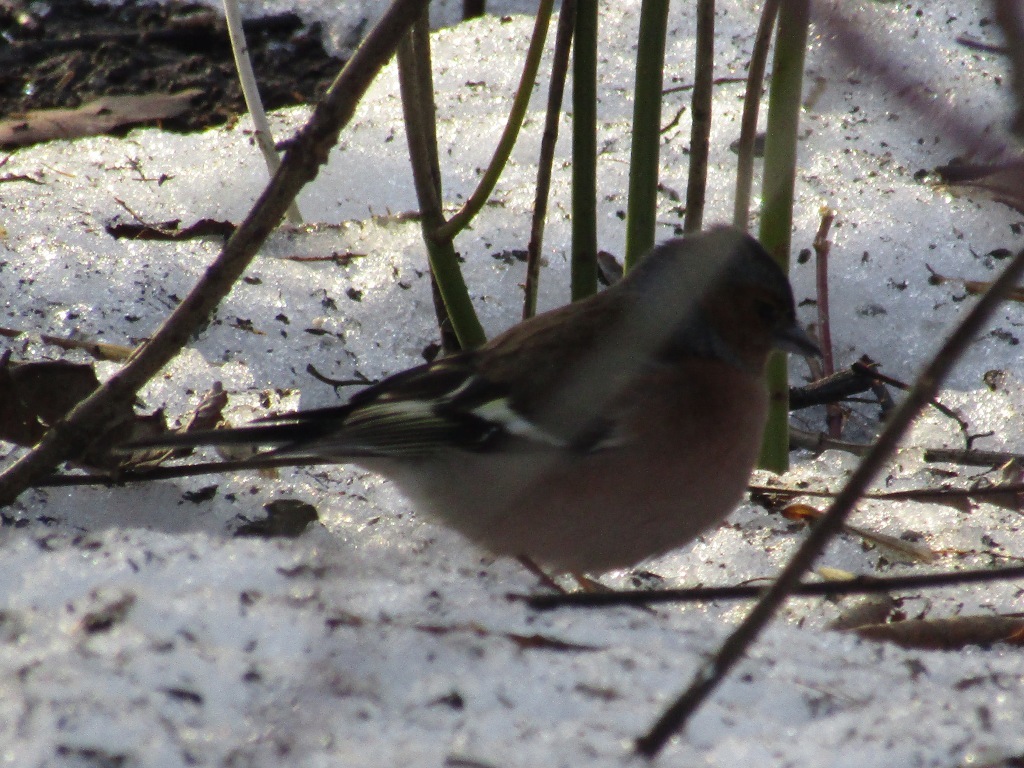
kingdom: Animalia
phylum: Chordata
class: Aves
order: Passeriformes
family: Fringillidae
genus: Fringilla
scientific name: Fringilla coelebs
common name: Common chaffinch
